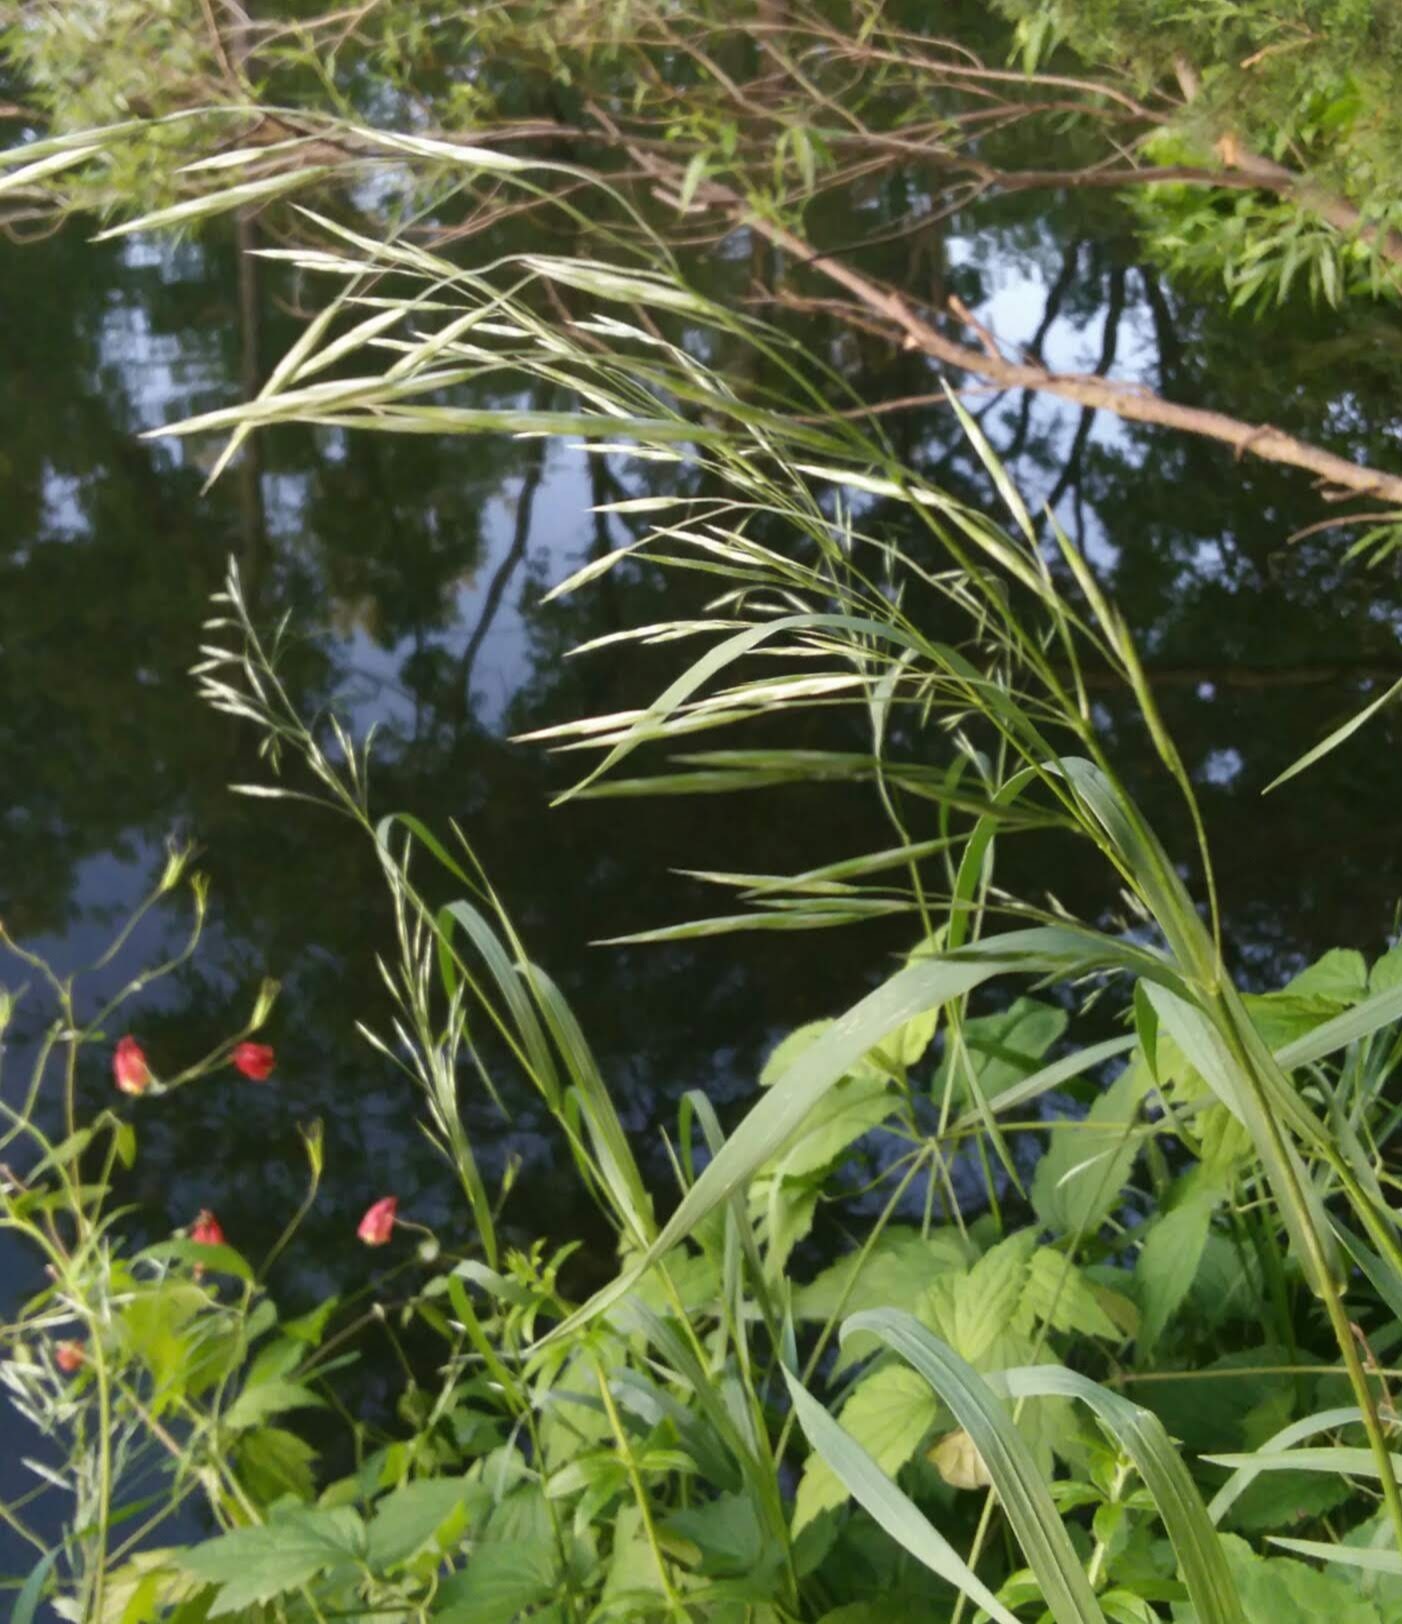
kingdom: Plantae
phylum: Tracheophyta
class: Liliopsida
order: Poales
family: Poaceae
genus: Bromus
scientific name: Bromus inermis
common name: Smooth brome
